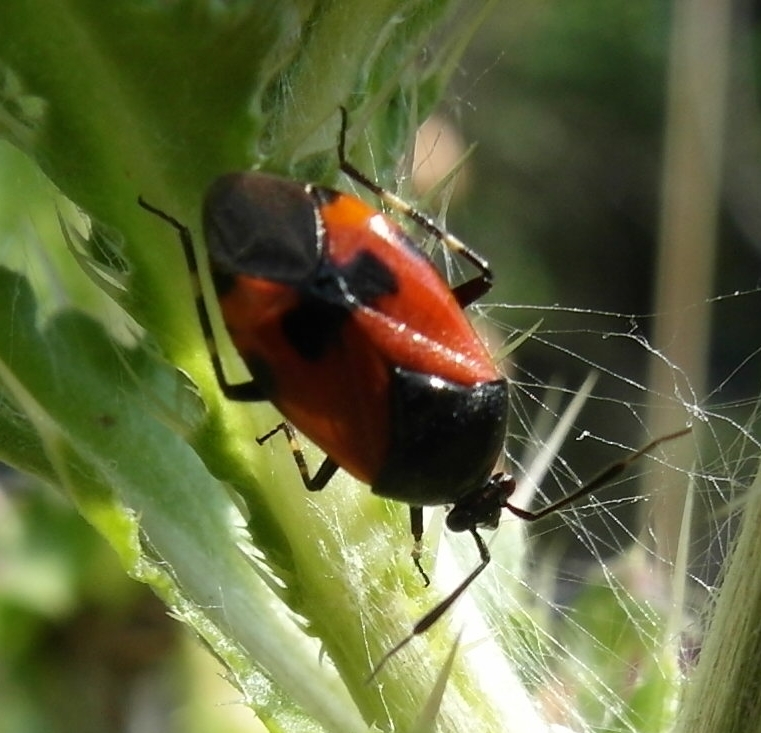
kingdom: Animalia
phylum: Arthropoda
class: Insecta
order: Hemiptera
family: Miridae
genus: Deraeocoris
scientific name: Deraeocoris rutilus
